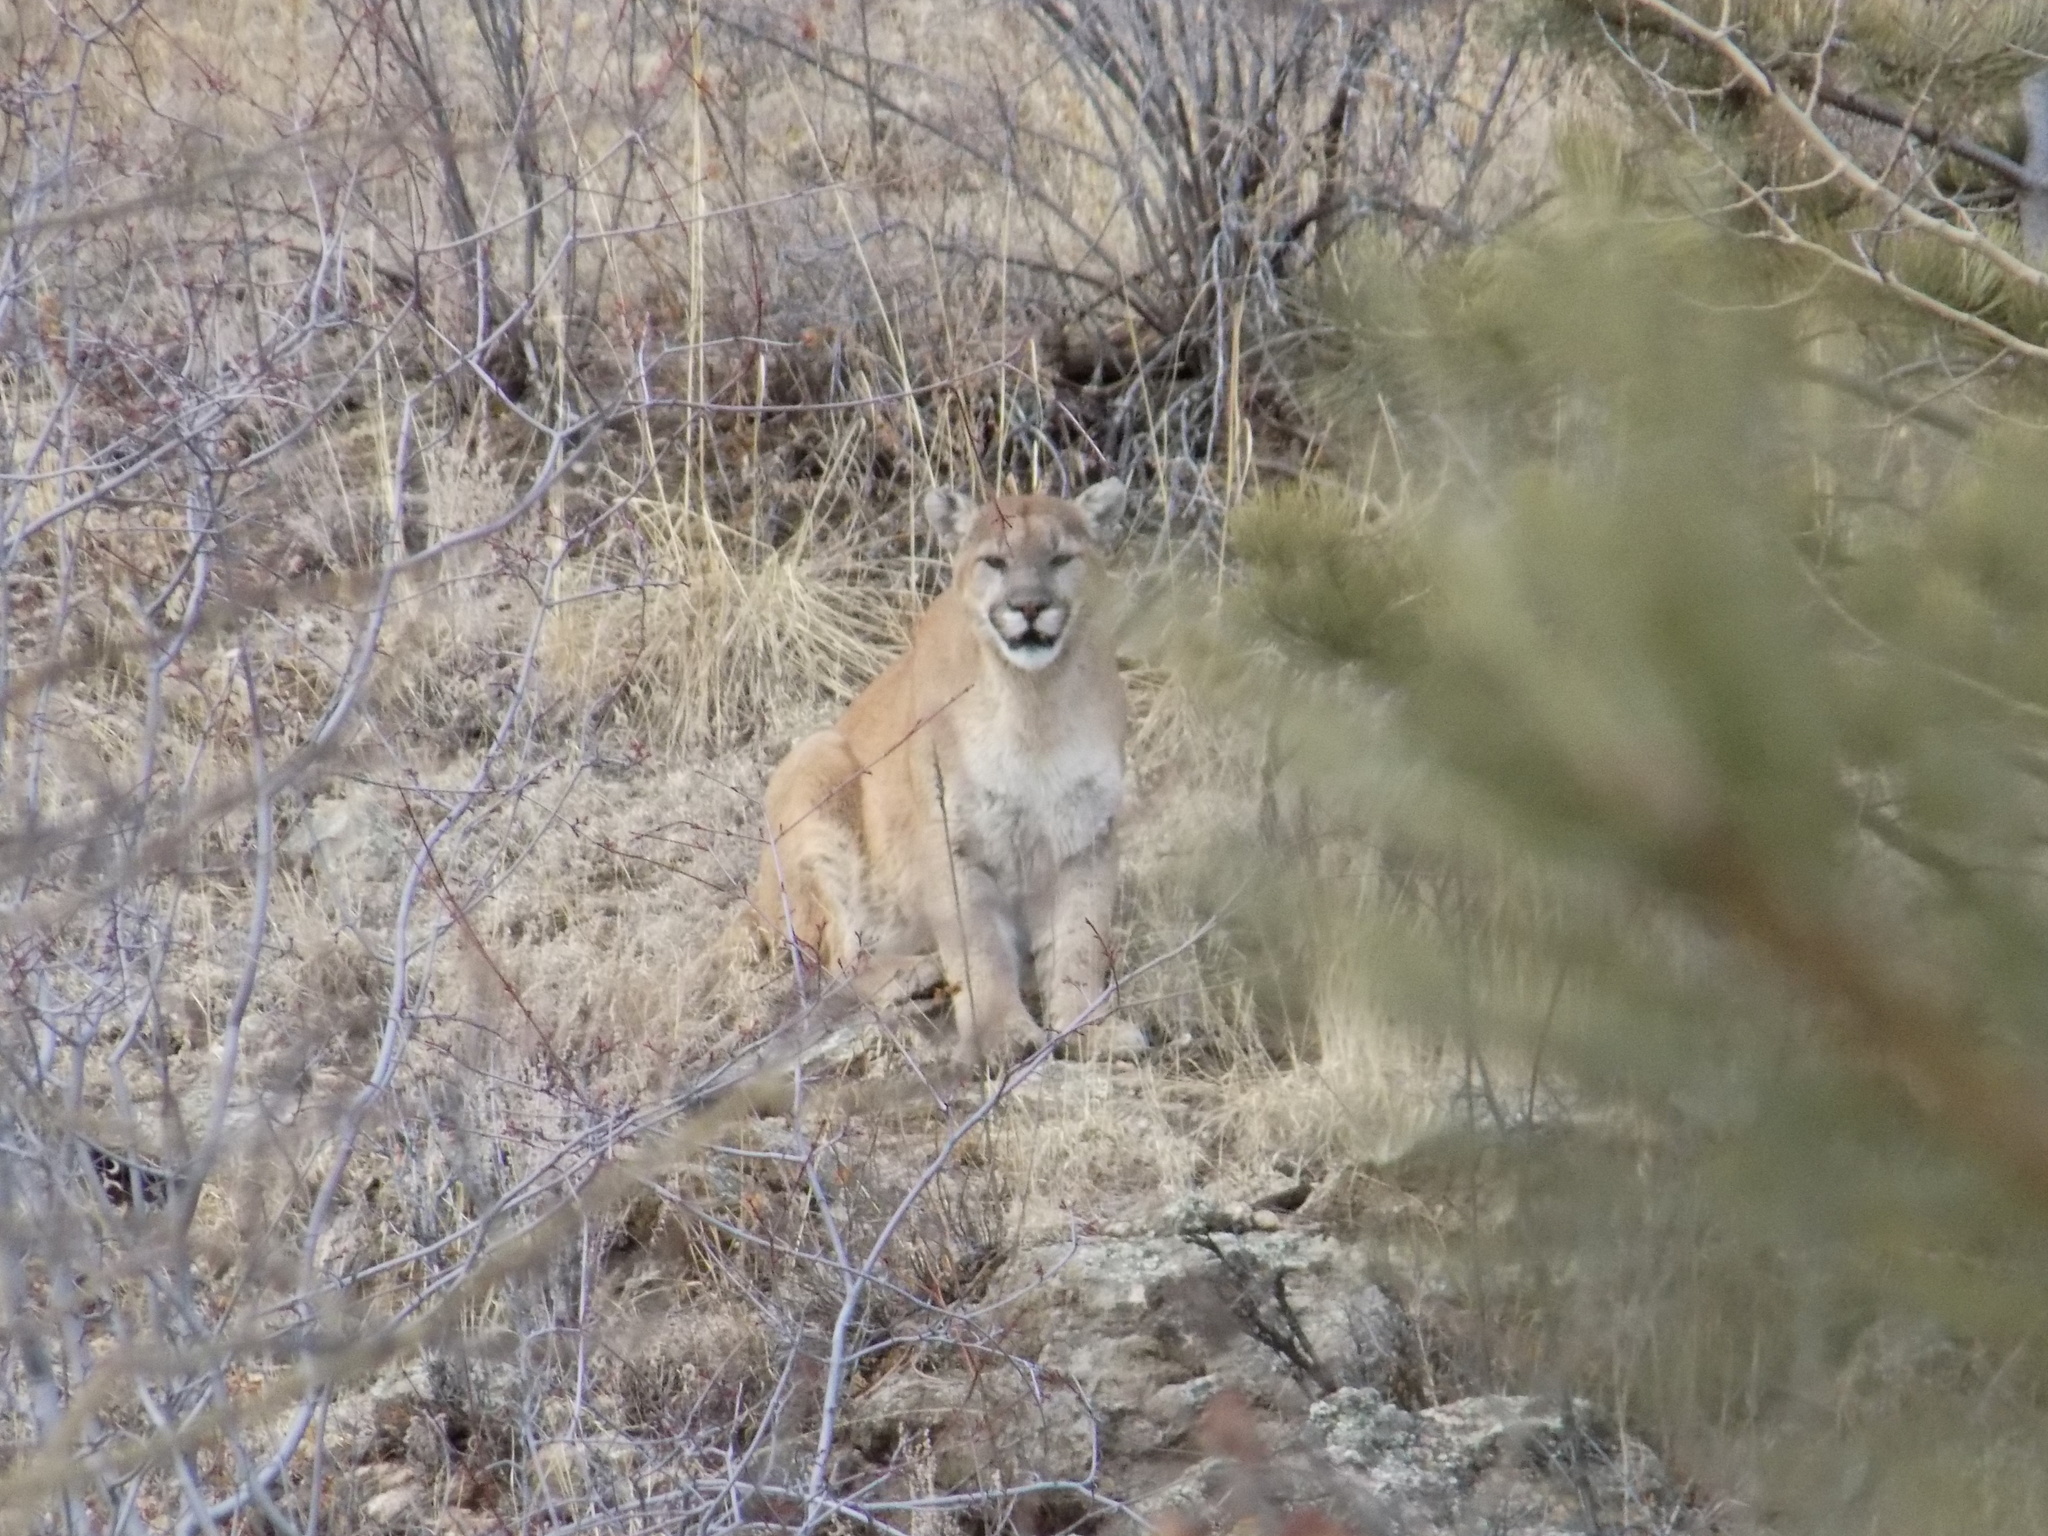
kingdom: Animalia
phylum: Chordata
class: Mammalia
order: Carnivora
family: Felidae
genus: Puma
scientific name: Puma concolor
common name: Puma
